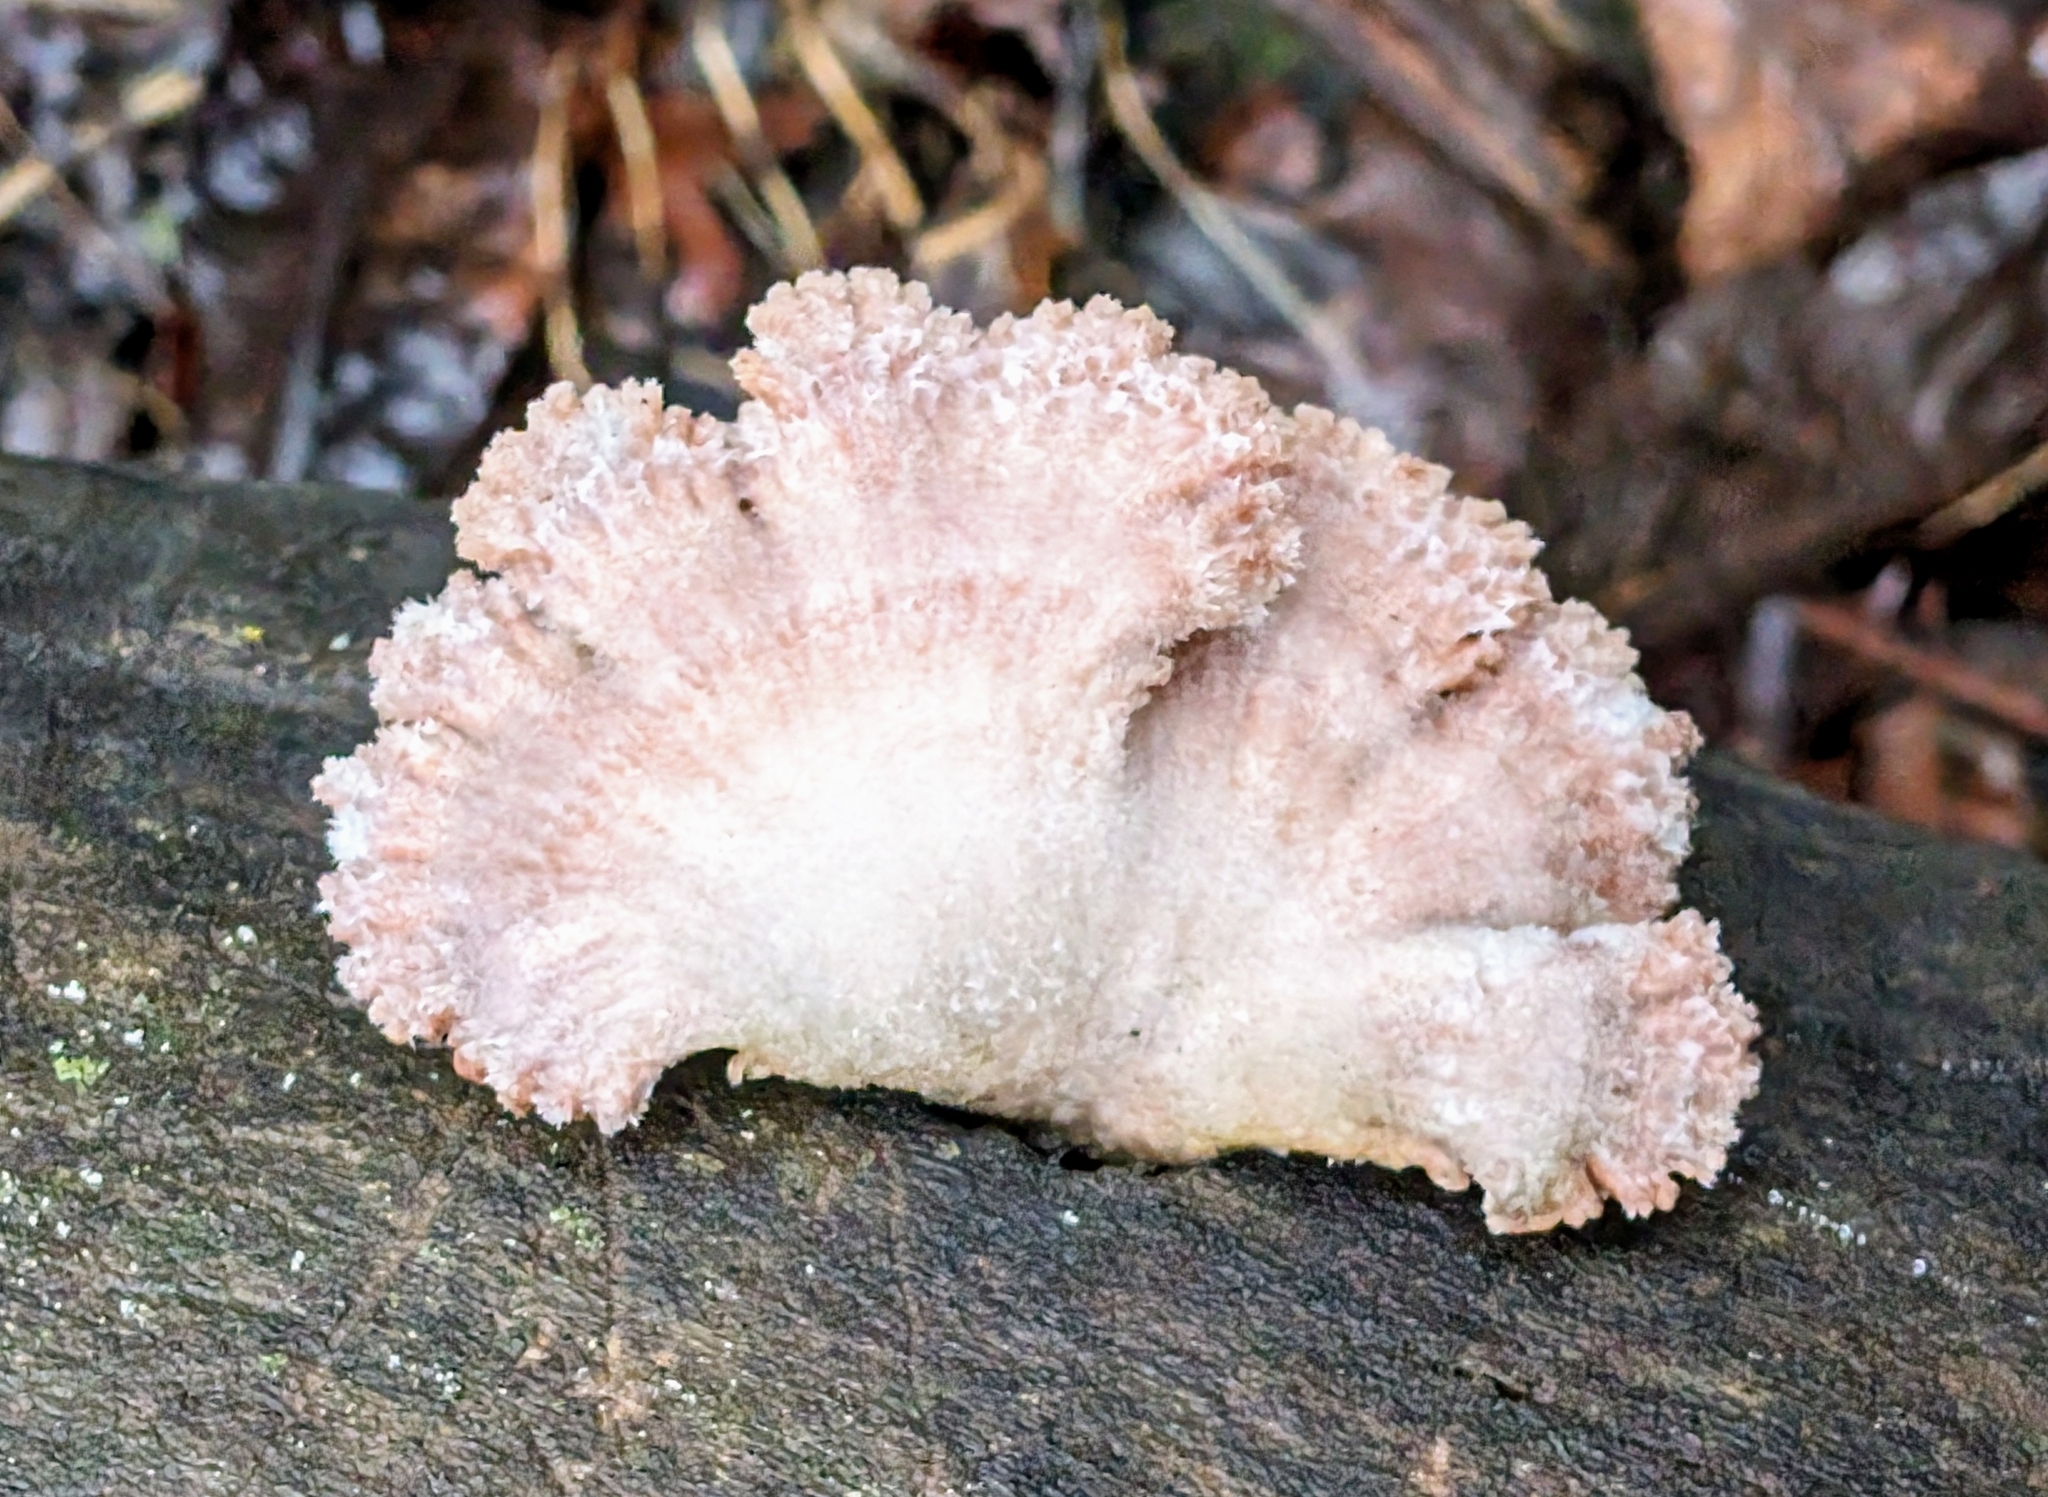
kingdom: Fungi
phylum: Basidiomycota
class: Agaricomycetes
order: Agaricales
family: Schizophyllaceae
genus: Schizophyllum
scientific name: Schizophyllum commune
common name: Common porecrust
